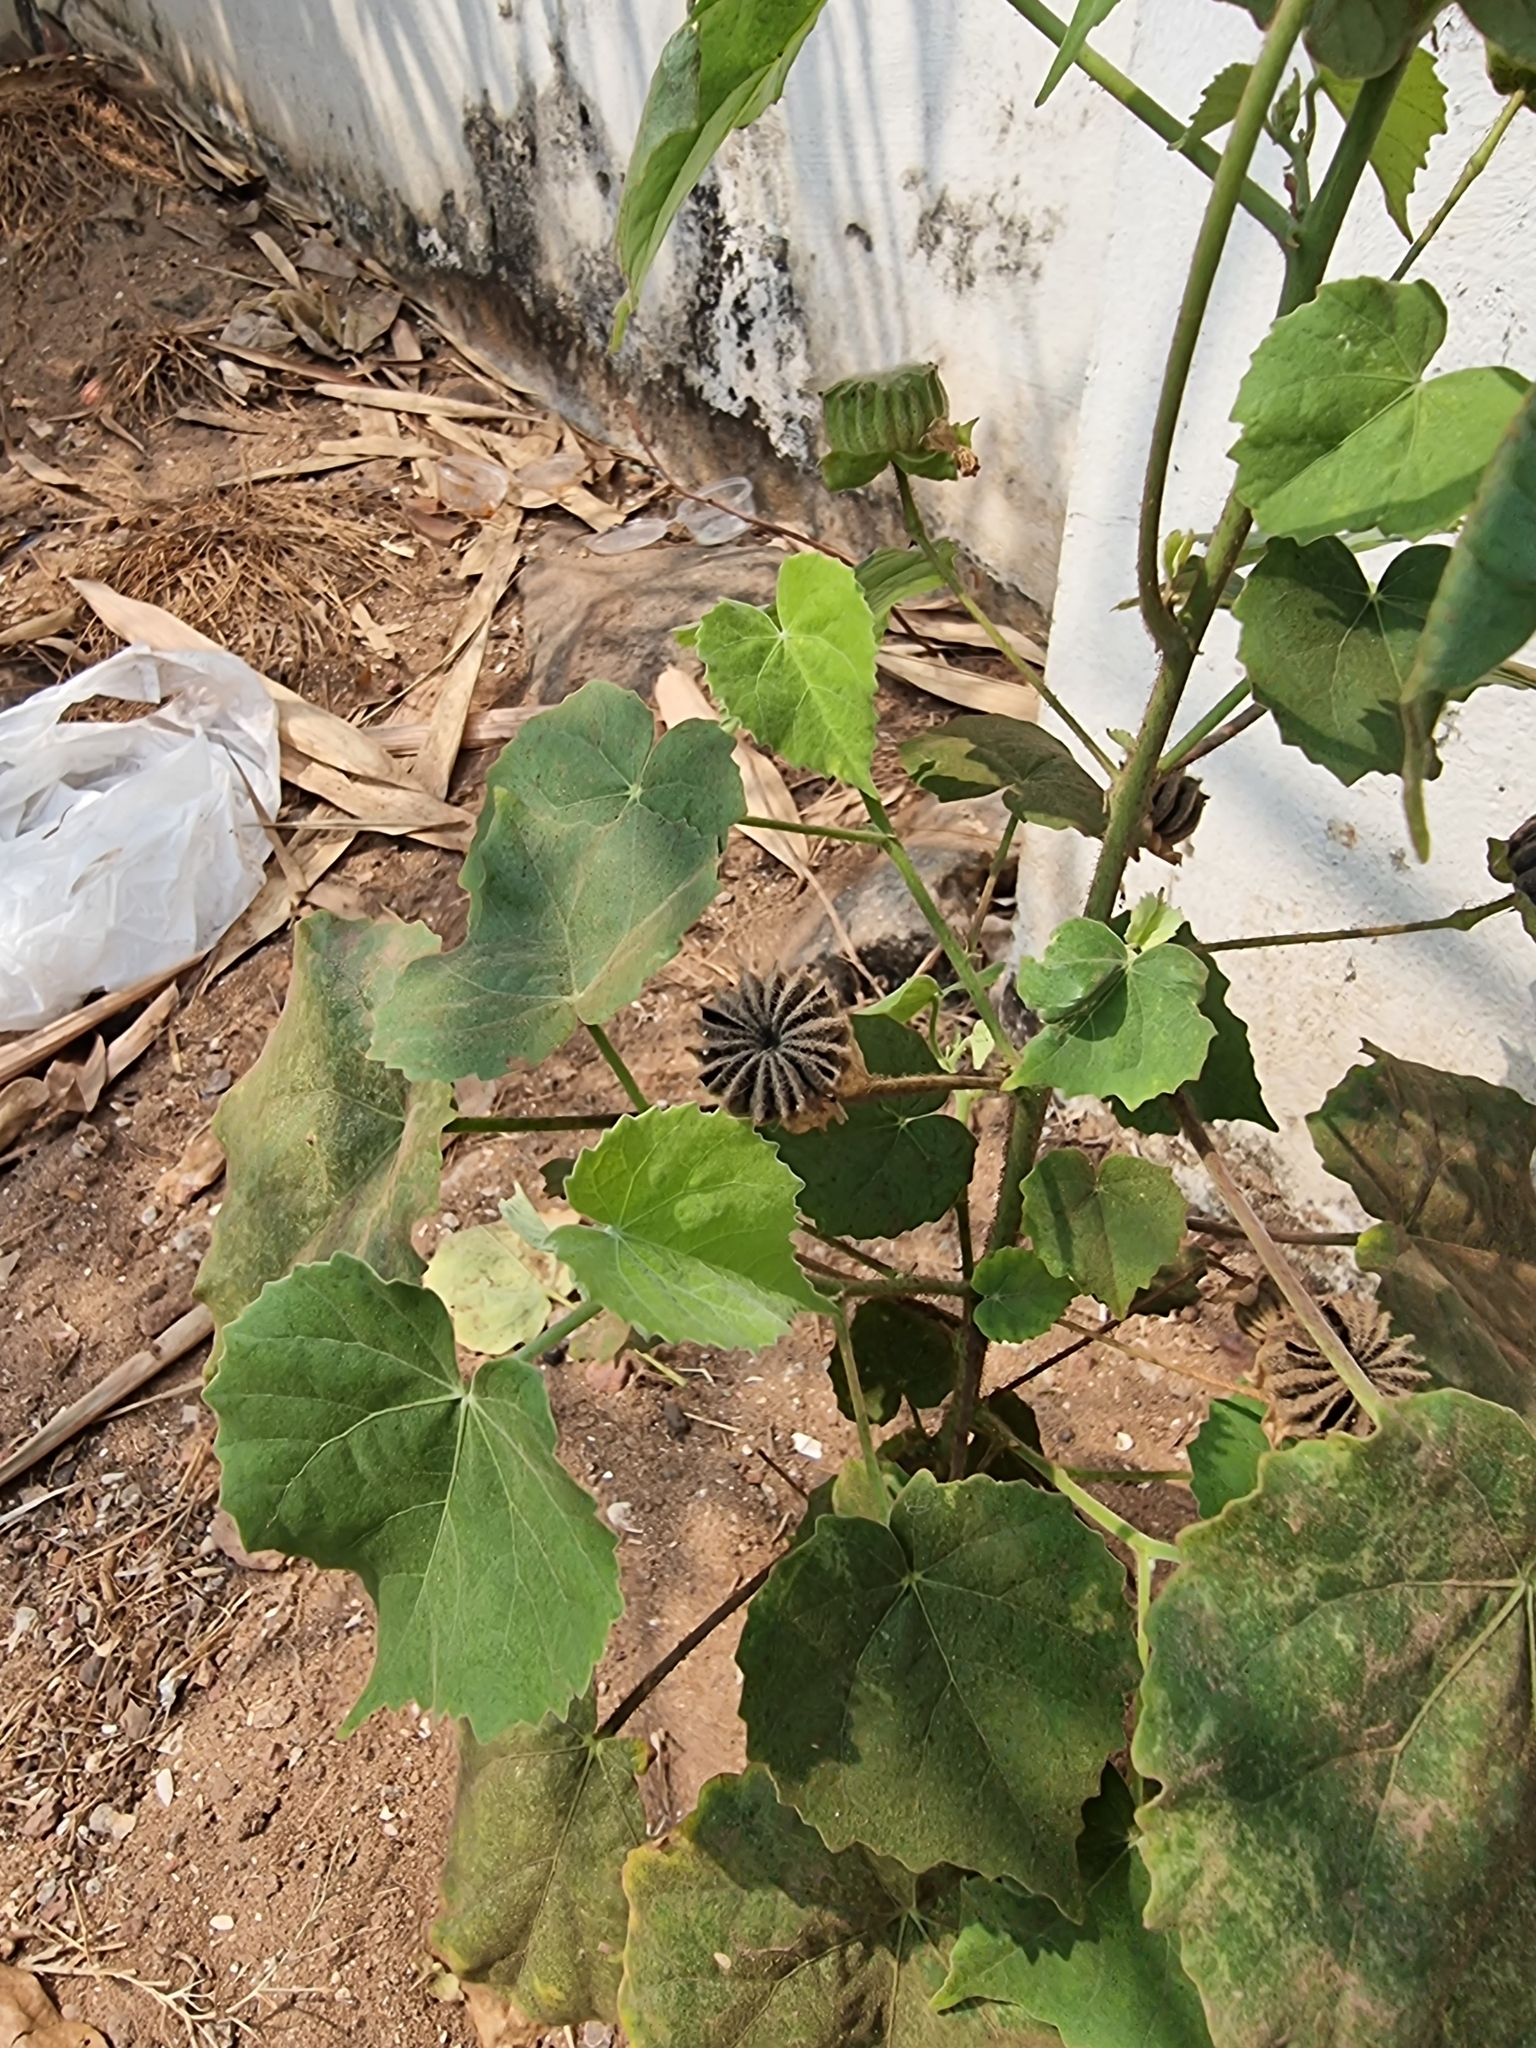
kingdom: Plantae
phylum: Tracheophyta
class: Magnoliopsida
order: Malvales
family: Malvaceae
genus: Abutilon
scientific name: Abutilon indicum
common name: Indian abutilon
